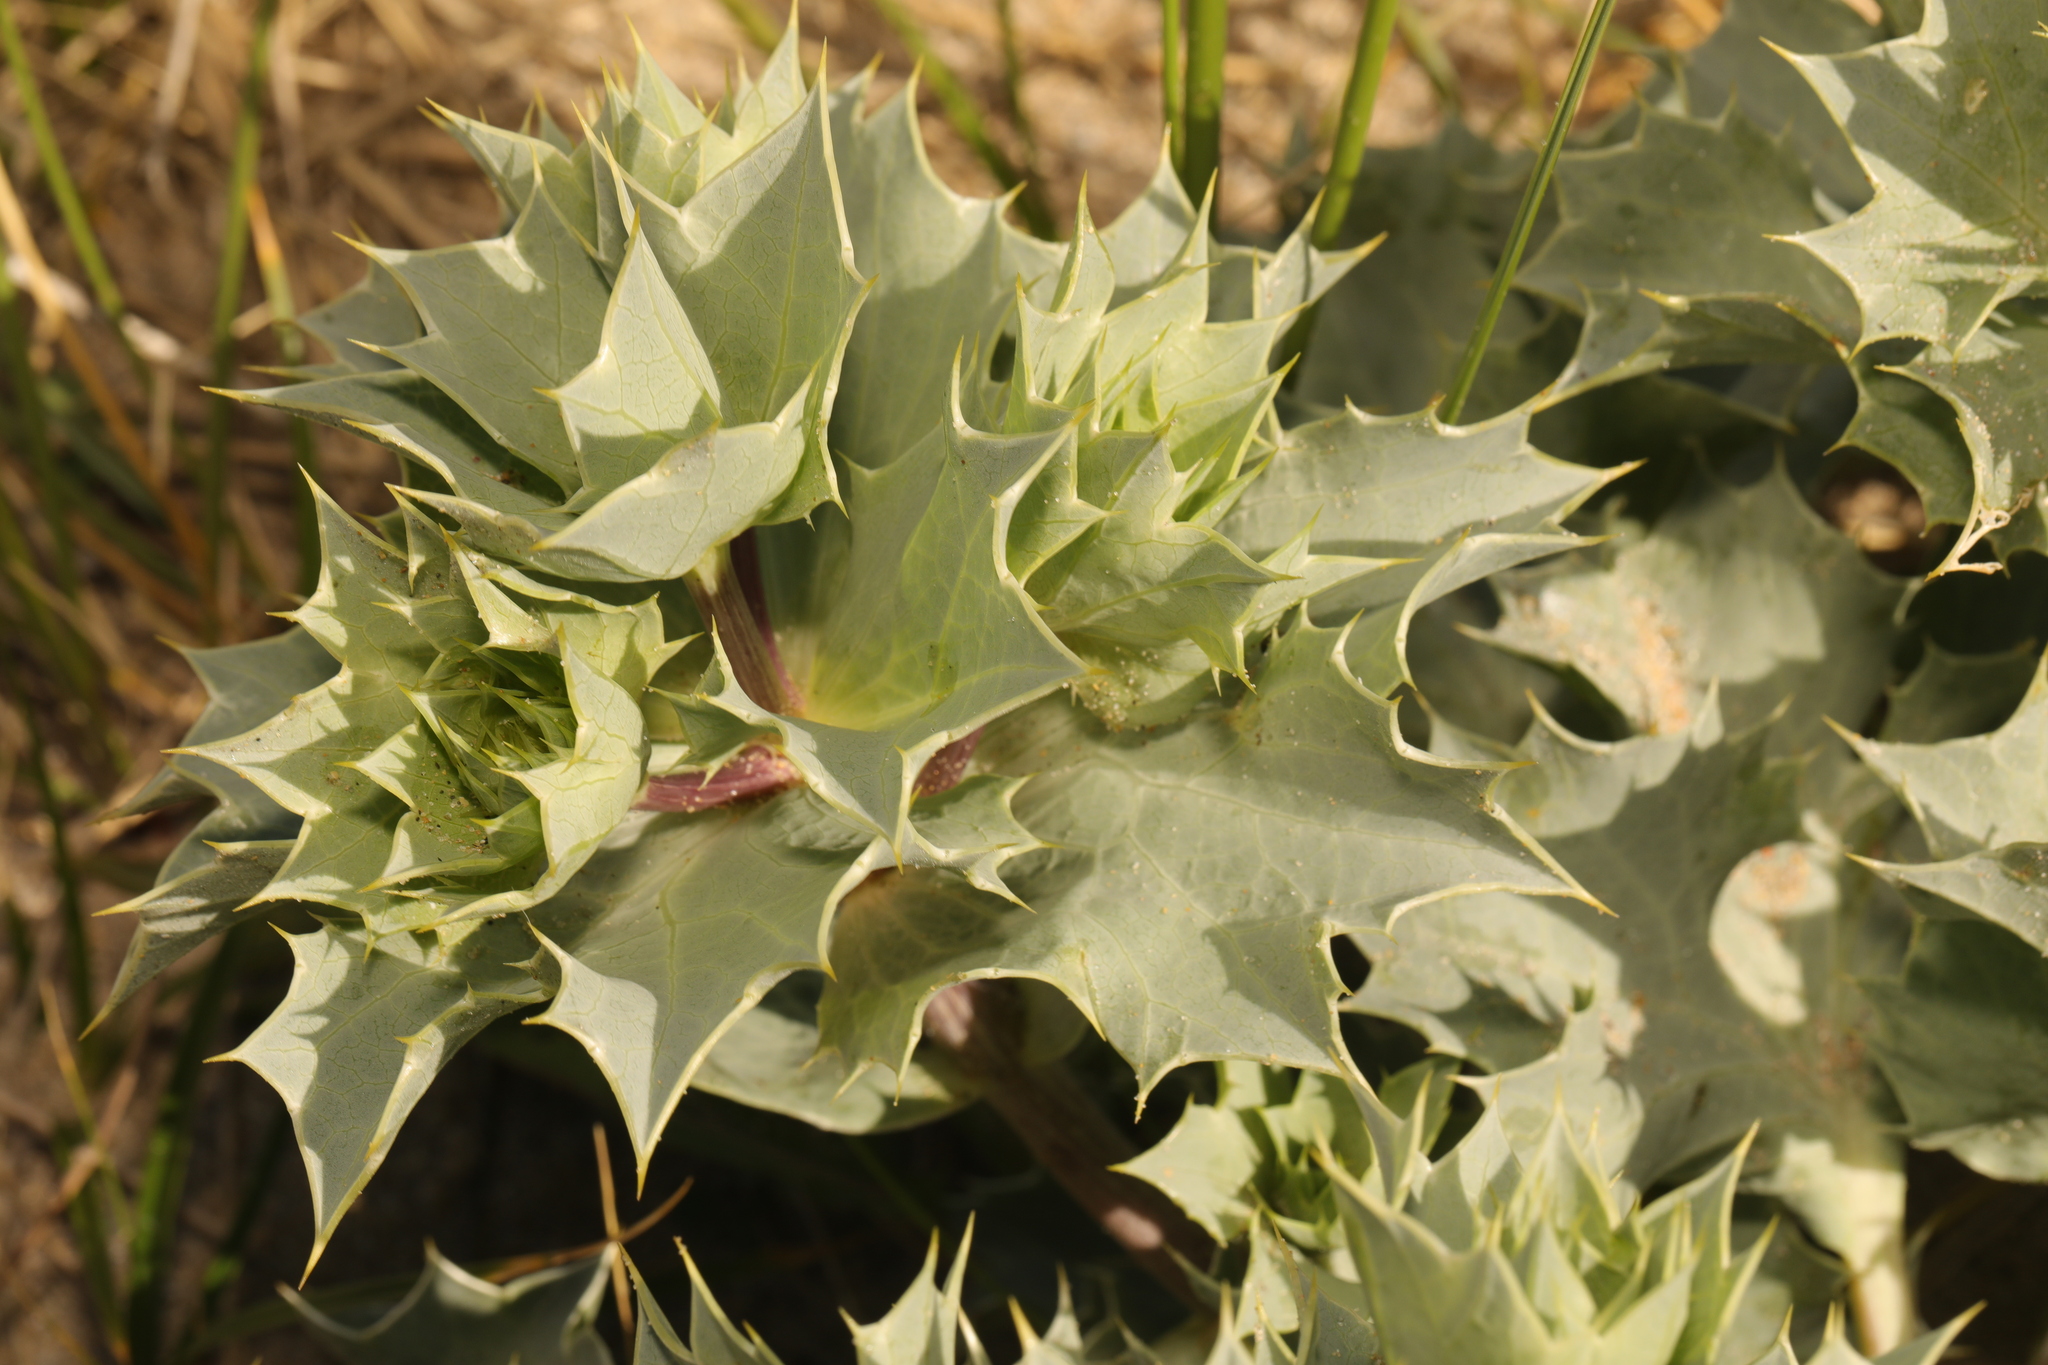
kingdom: Plantae
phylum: Tracheophyta
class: Magnoliopsida
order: Apiales
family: Apiaceae
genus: Eryngium
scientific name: Eryngium maritimum
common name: Sea-holly
